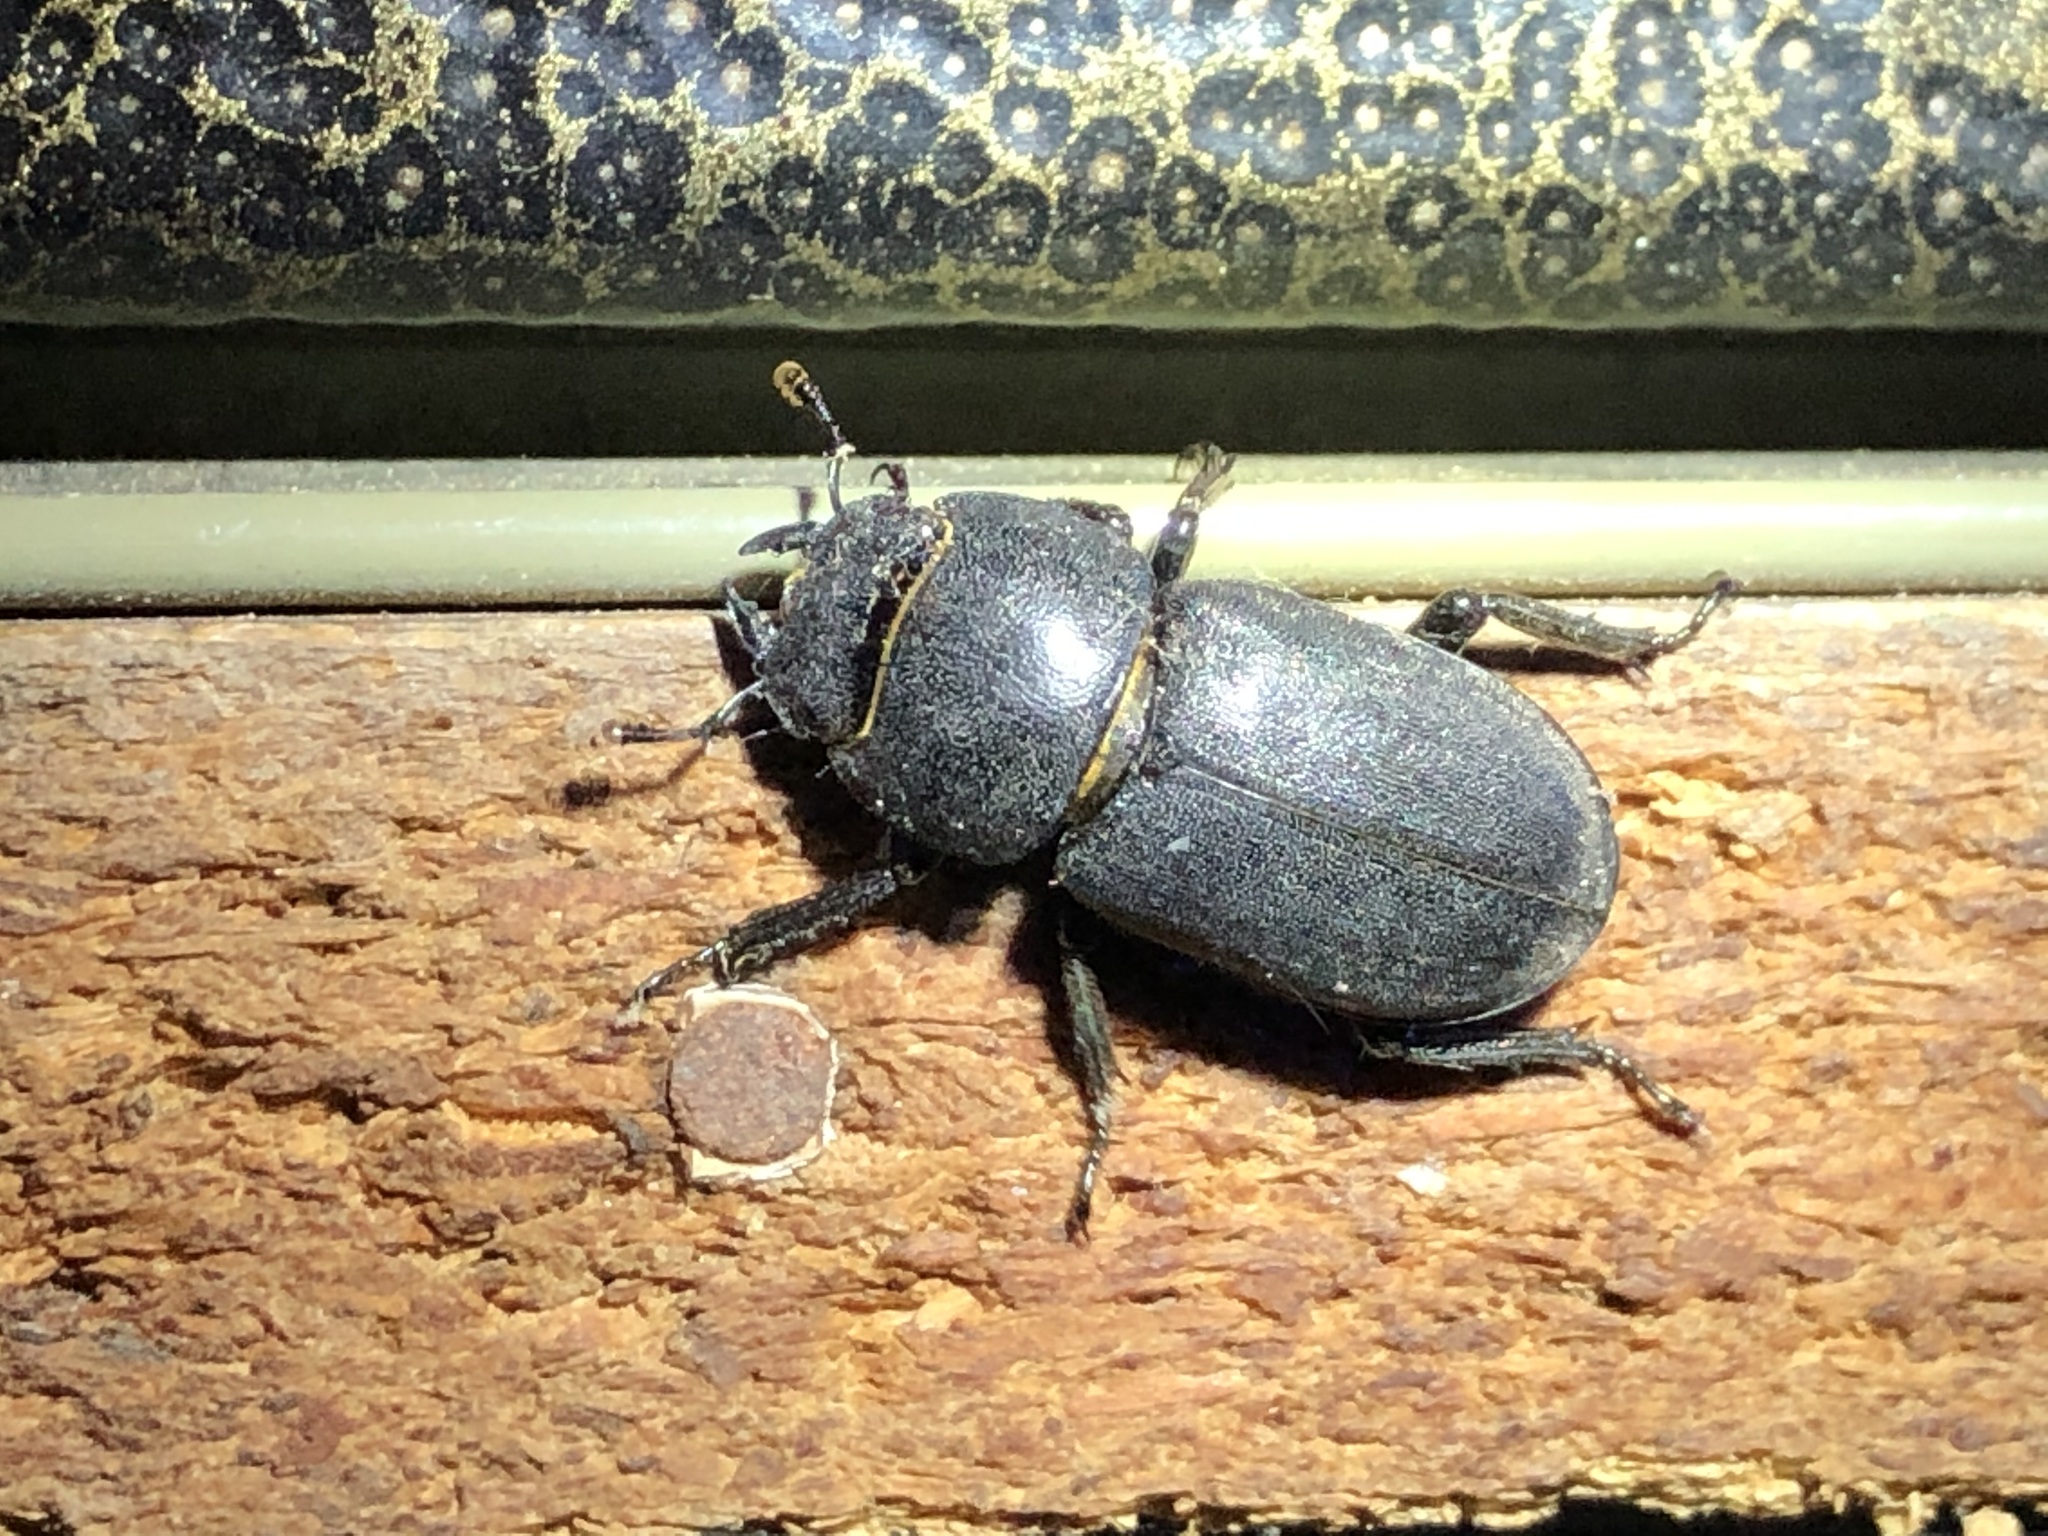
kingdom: Animalia
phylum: Arthropoda
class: Insecta
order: Coleoptera
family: Lucanidae
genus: Dorcus
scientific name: Dorcus parallelipipedus
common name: Lesser stag beetle
